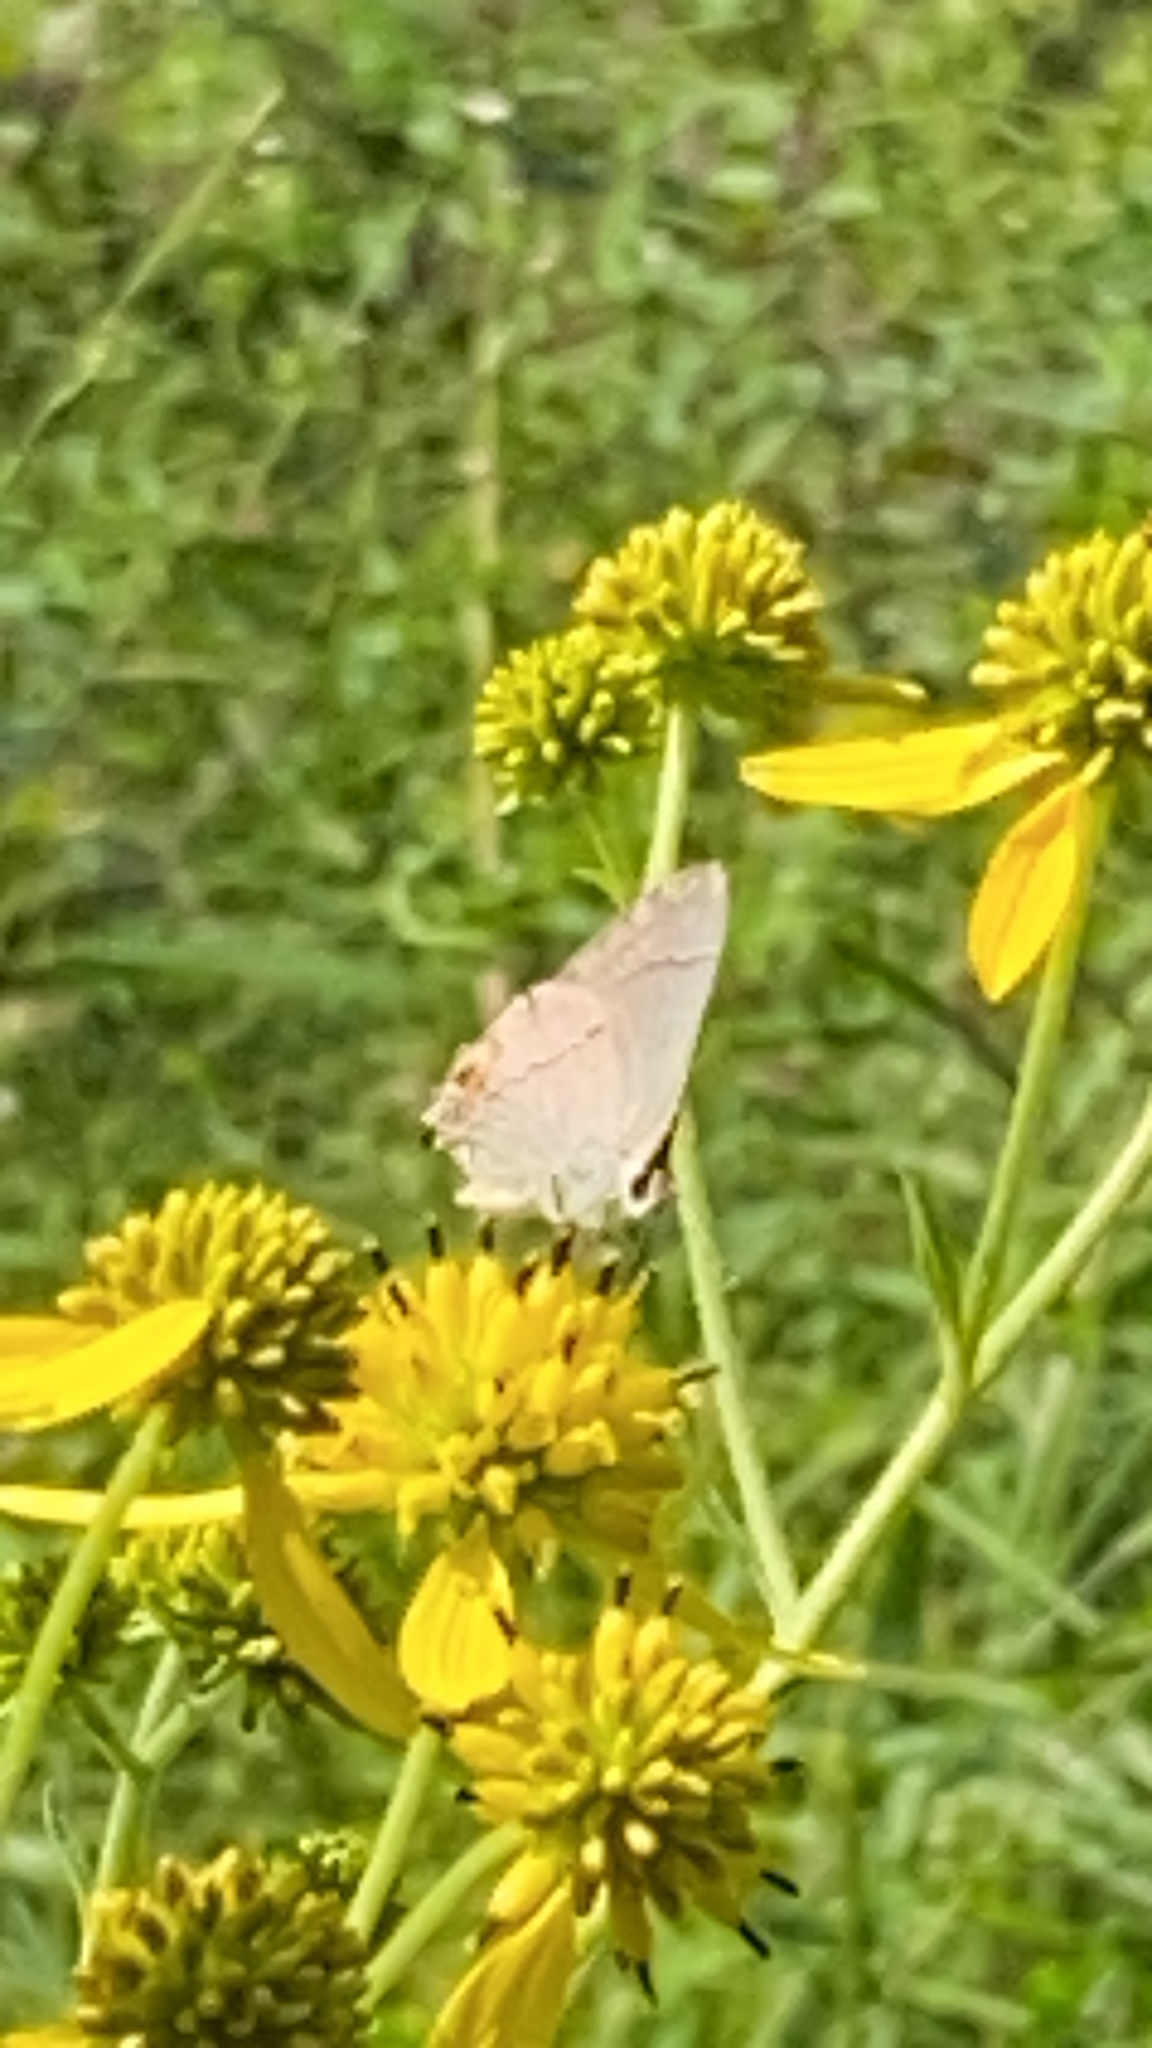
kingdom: Animalia
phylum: Arthropoda
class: Insecta
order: Lepidoptera
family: Lycaenidae
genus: Strymon
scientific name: Strymon melinus
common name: Gray hairstreak
